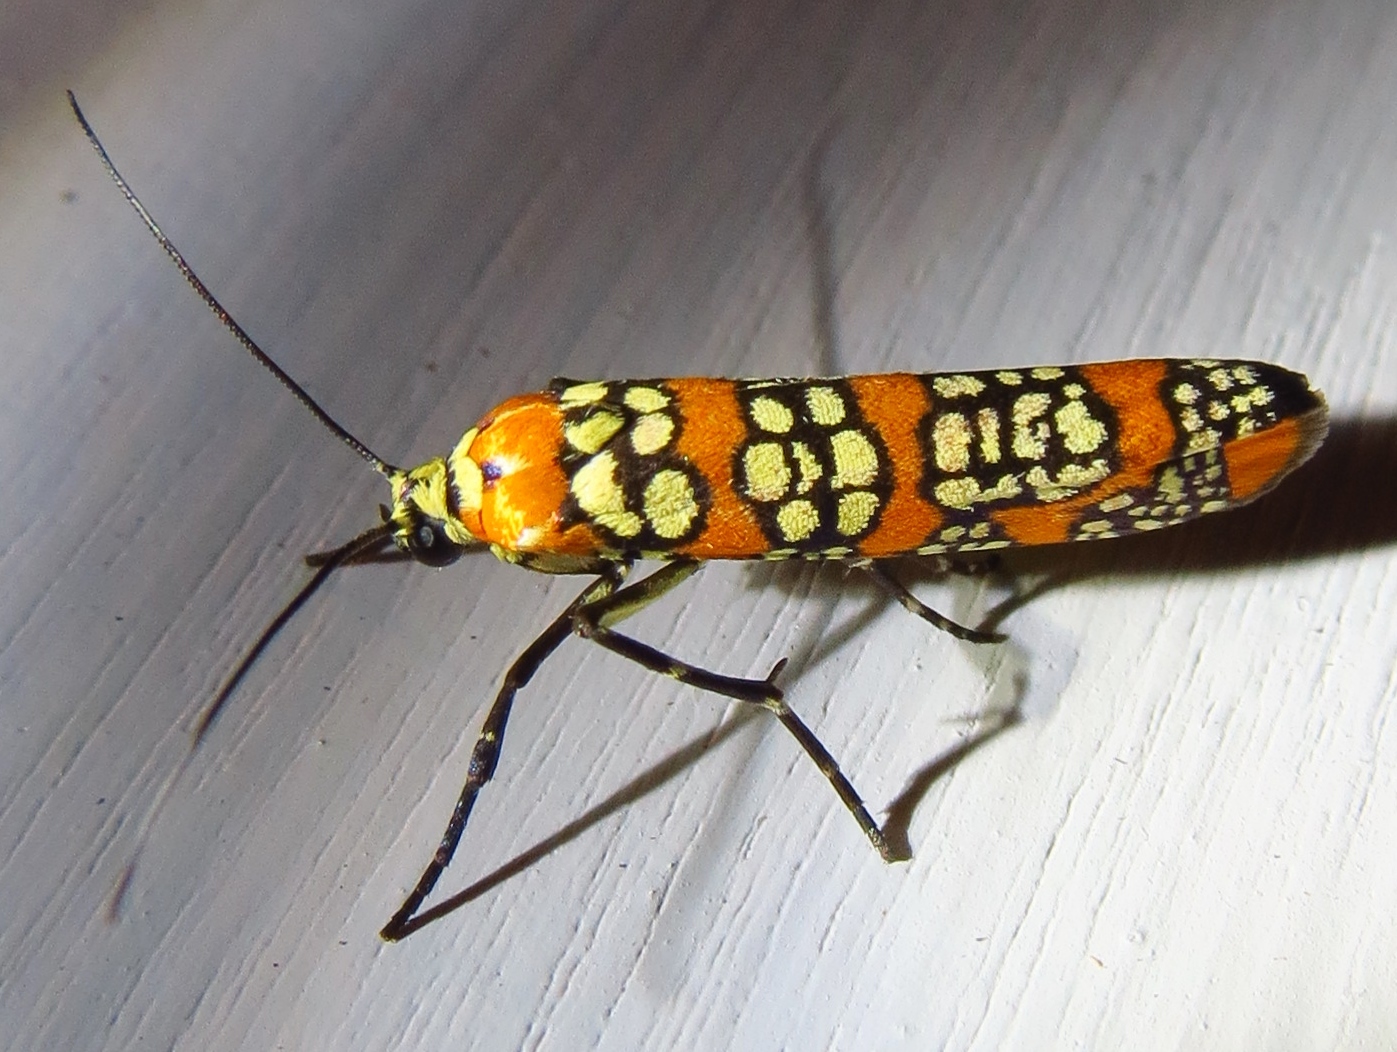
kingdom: Animalia
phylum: Arthropoda
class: Insecta
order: Lepidoptera
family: Attevidae
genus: Atteva
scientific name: Atteva punctella
